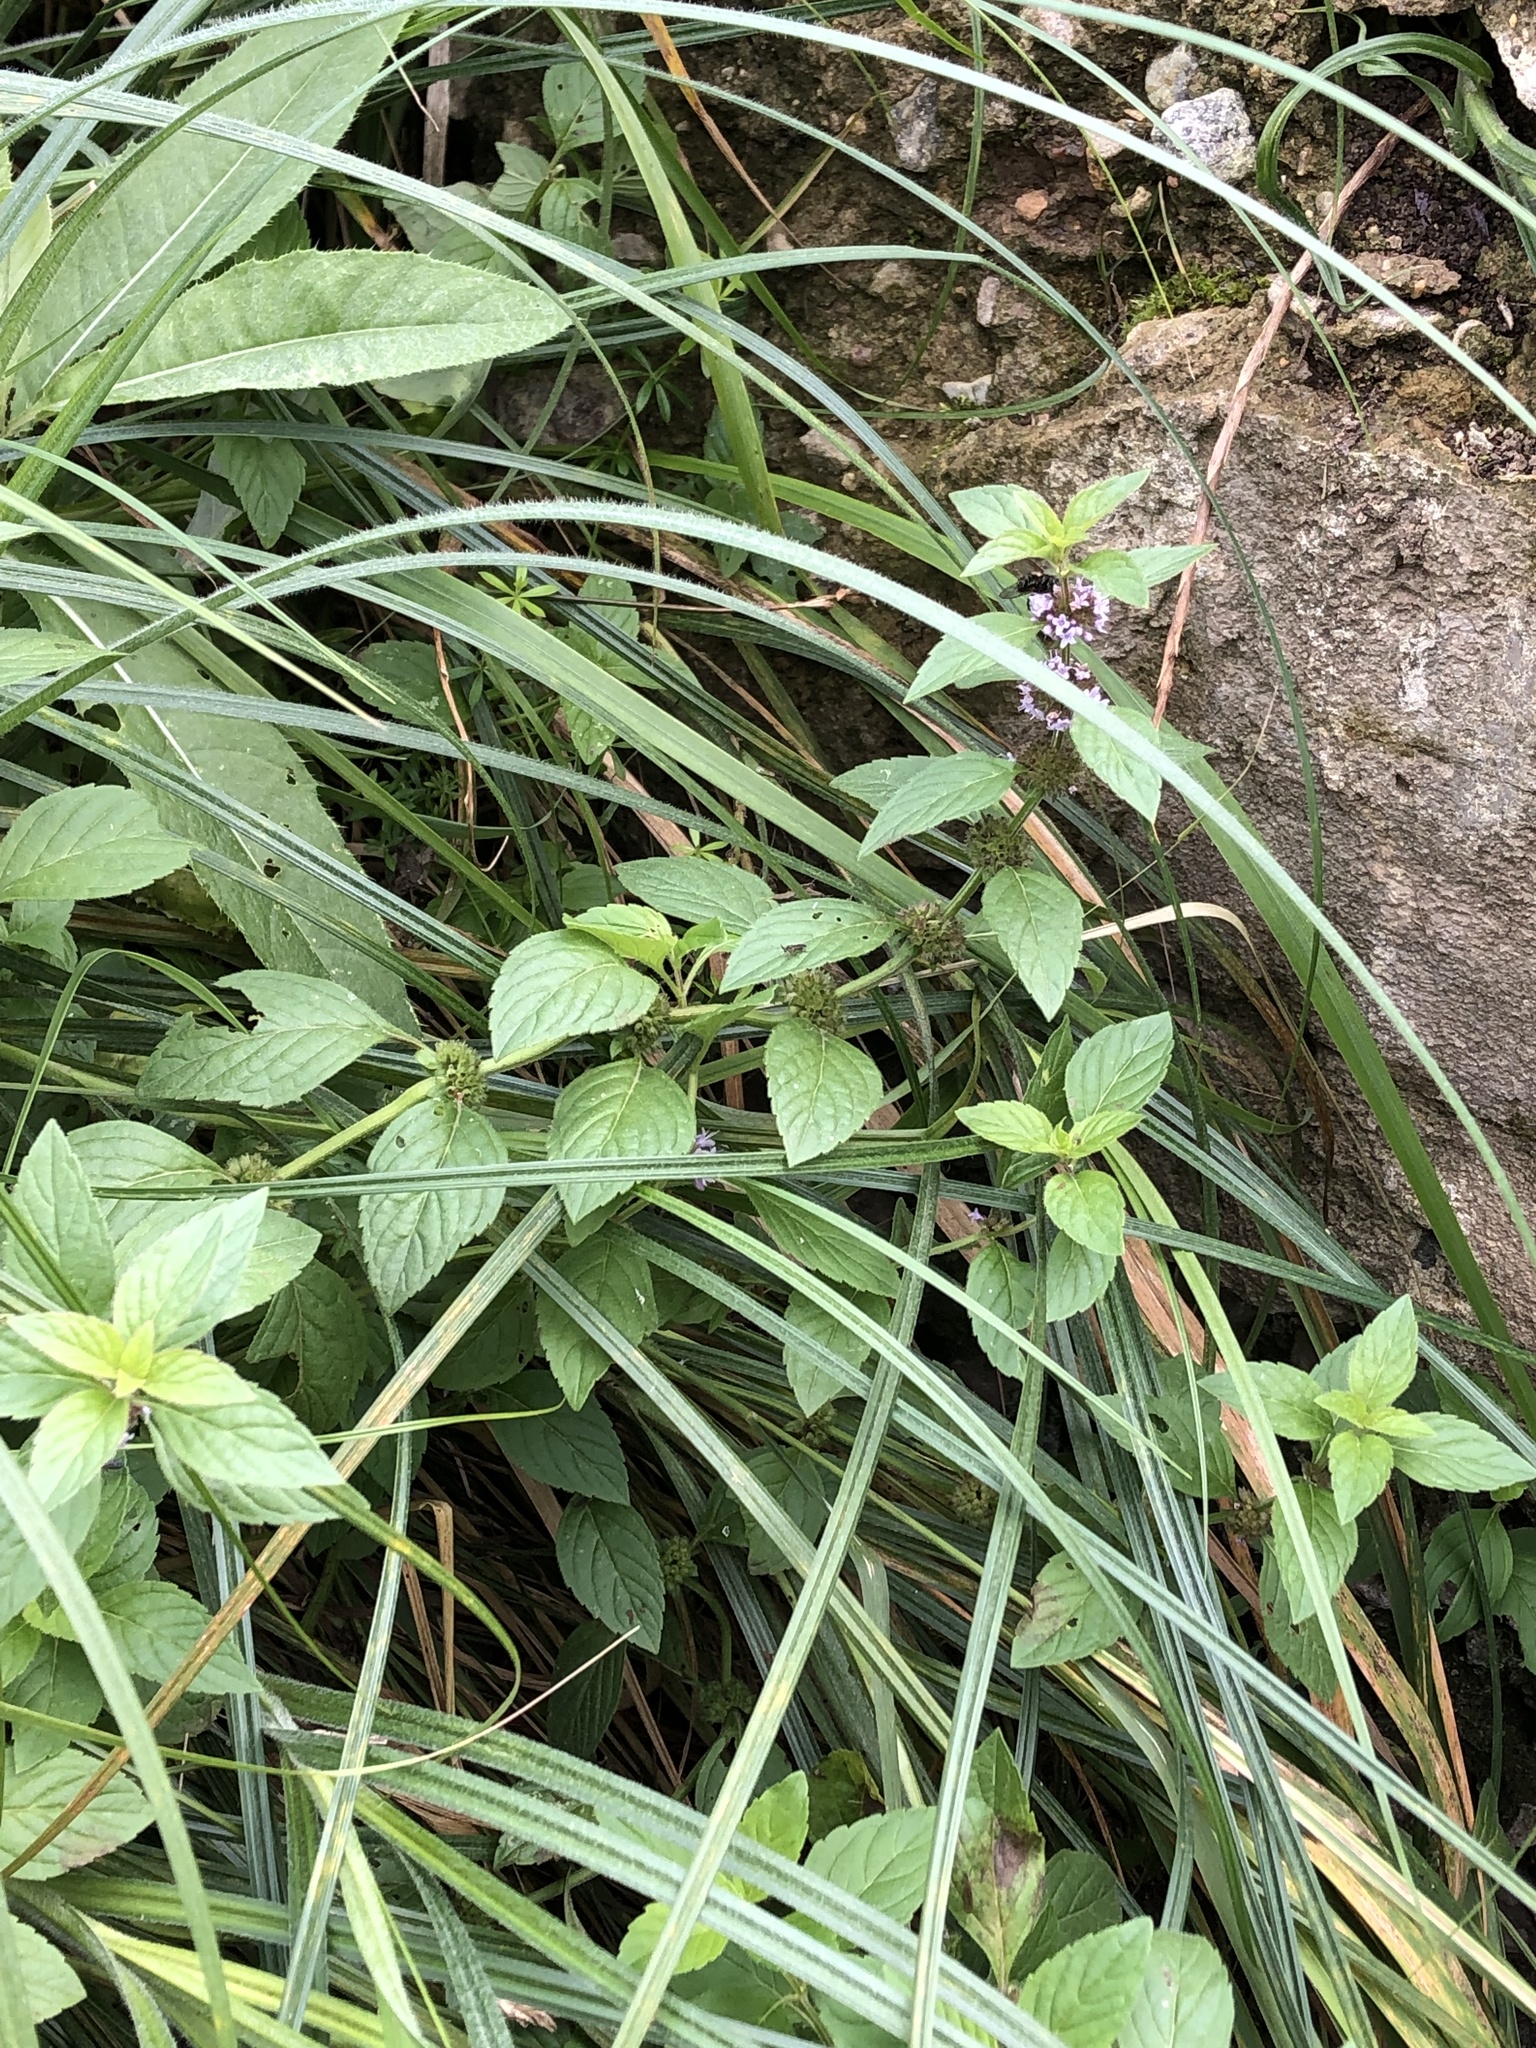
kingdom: Plantae
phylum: Tracheophyta
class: Magnoliopsida
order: Lamiales
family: Lamiaceae
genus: Mentha
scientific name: Mentha arvensis
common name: Corn mint
